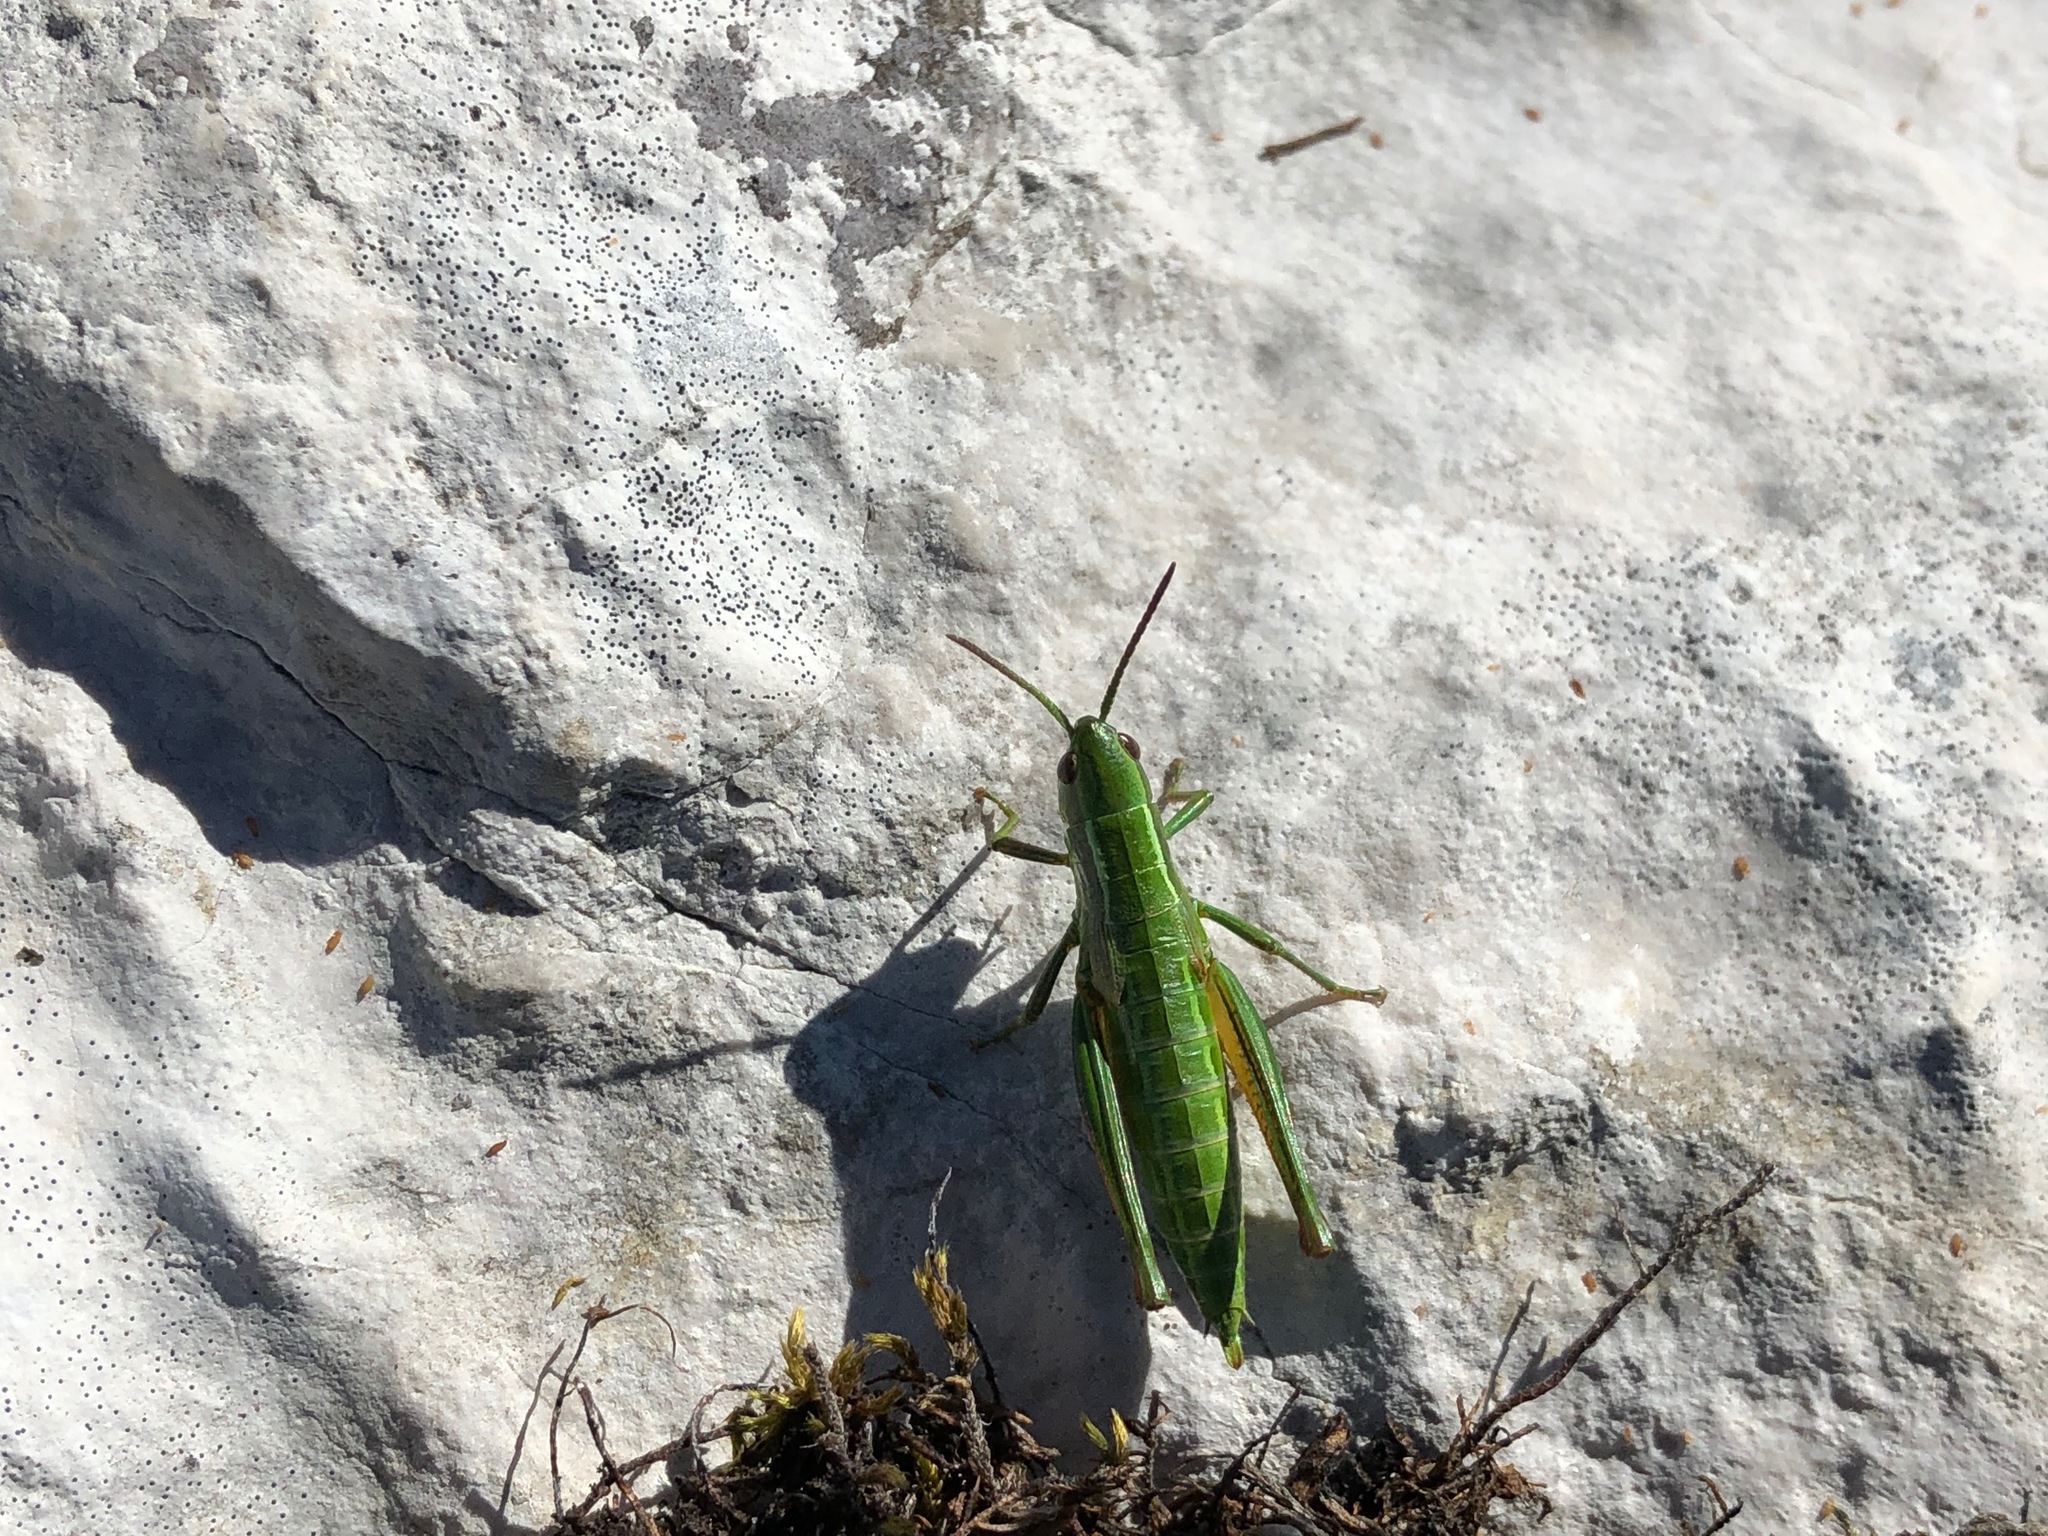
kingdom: Animalia
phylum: Arthropoda
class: Insecta
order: Orthoptera
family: Acrididae
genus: Euthystira
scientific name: Euthystira brachyptera
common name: Small gold grasshopper
